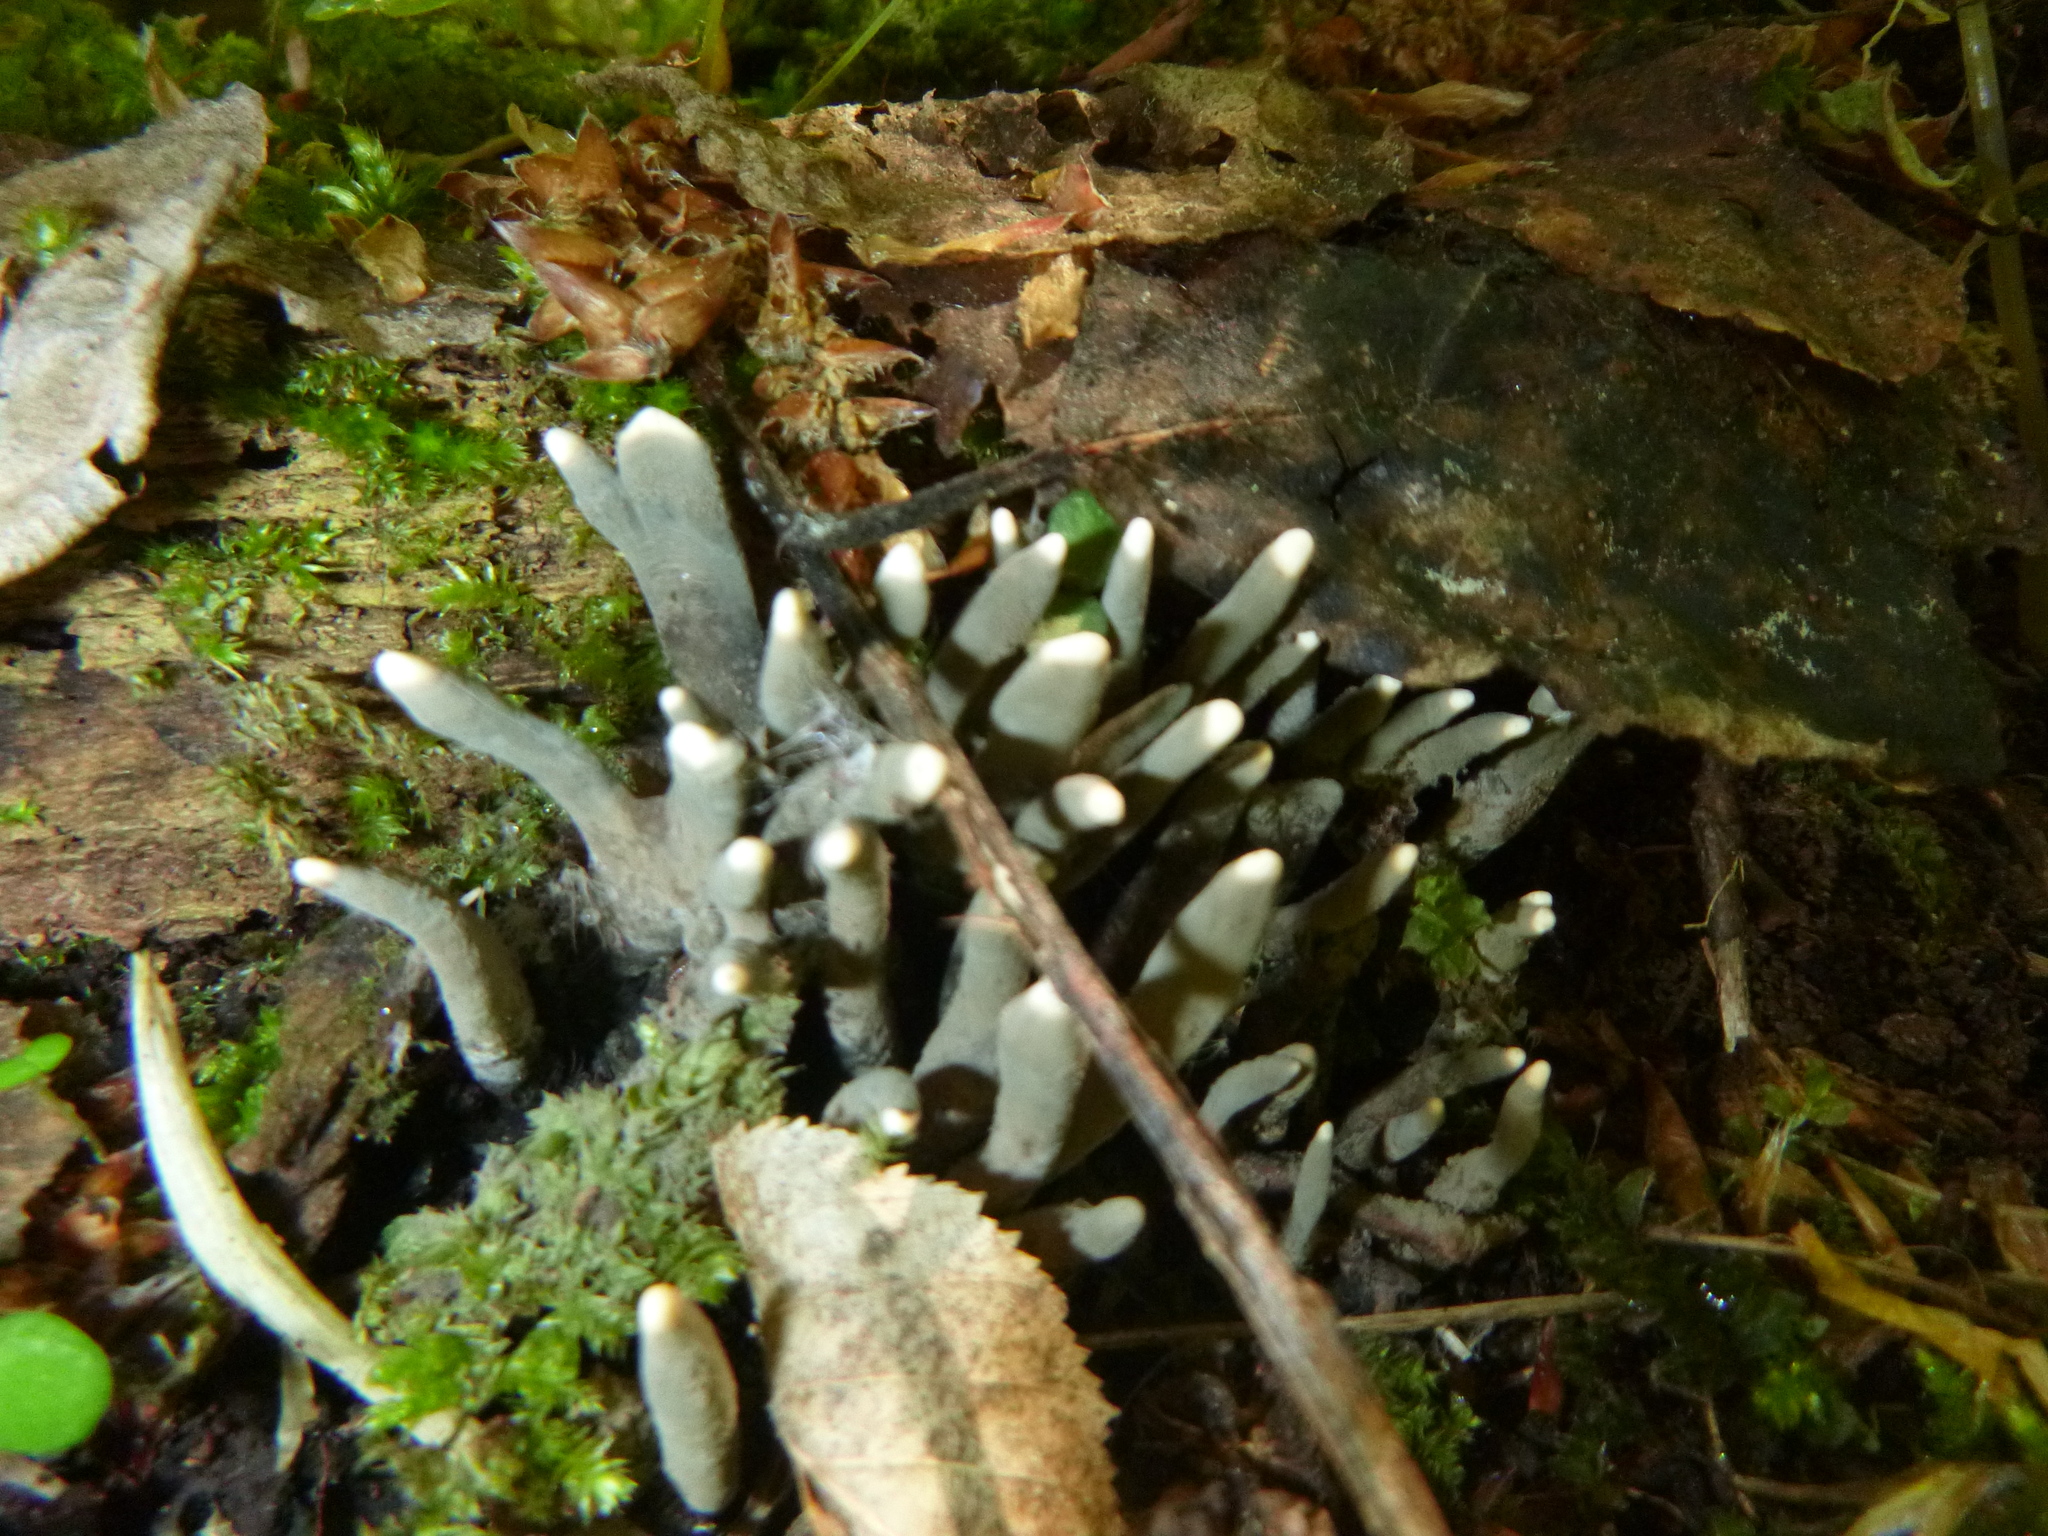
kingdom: Fungi
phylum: Ascomycota
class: Sordariomycetes
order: Xylariales
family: Xylariaceae
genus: Xylaria
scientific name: Xylaria polymorpha
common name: Dead man's fingers
